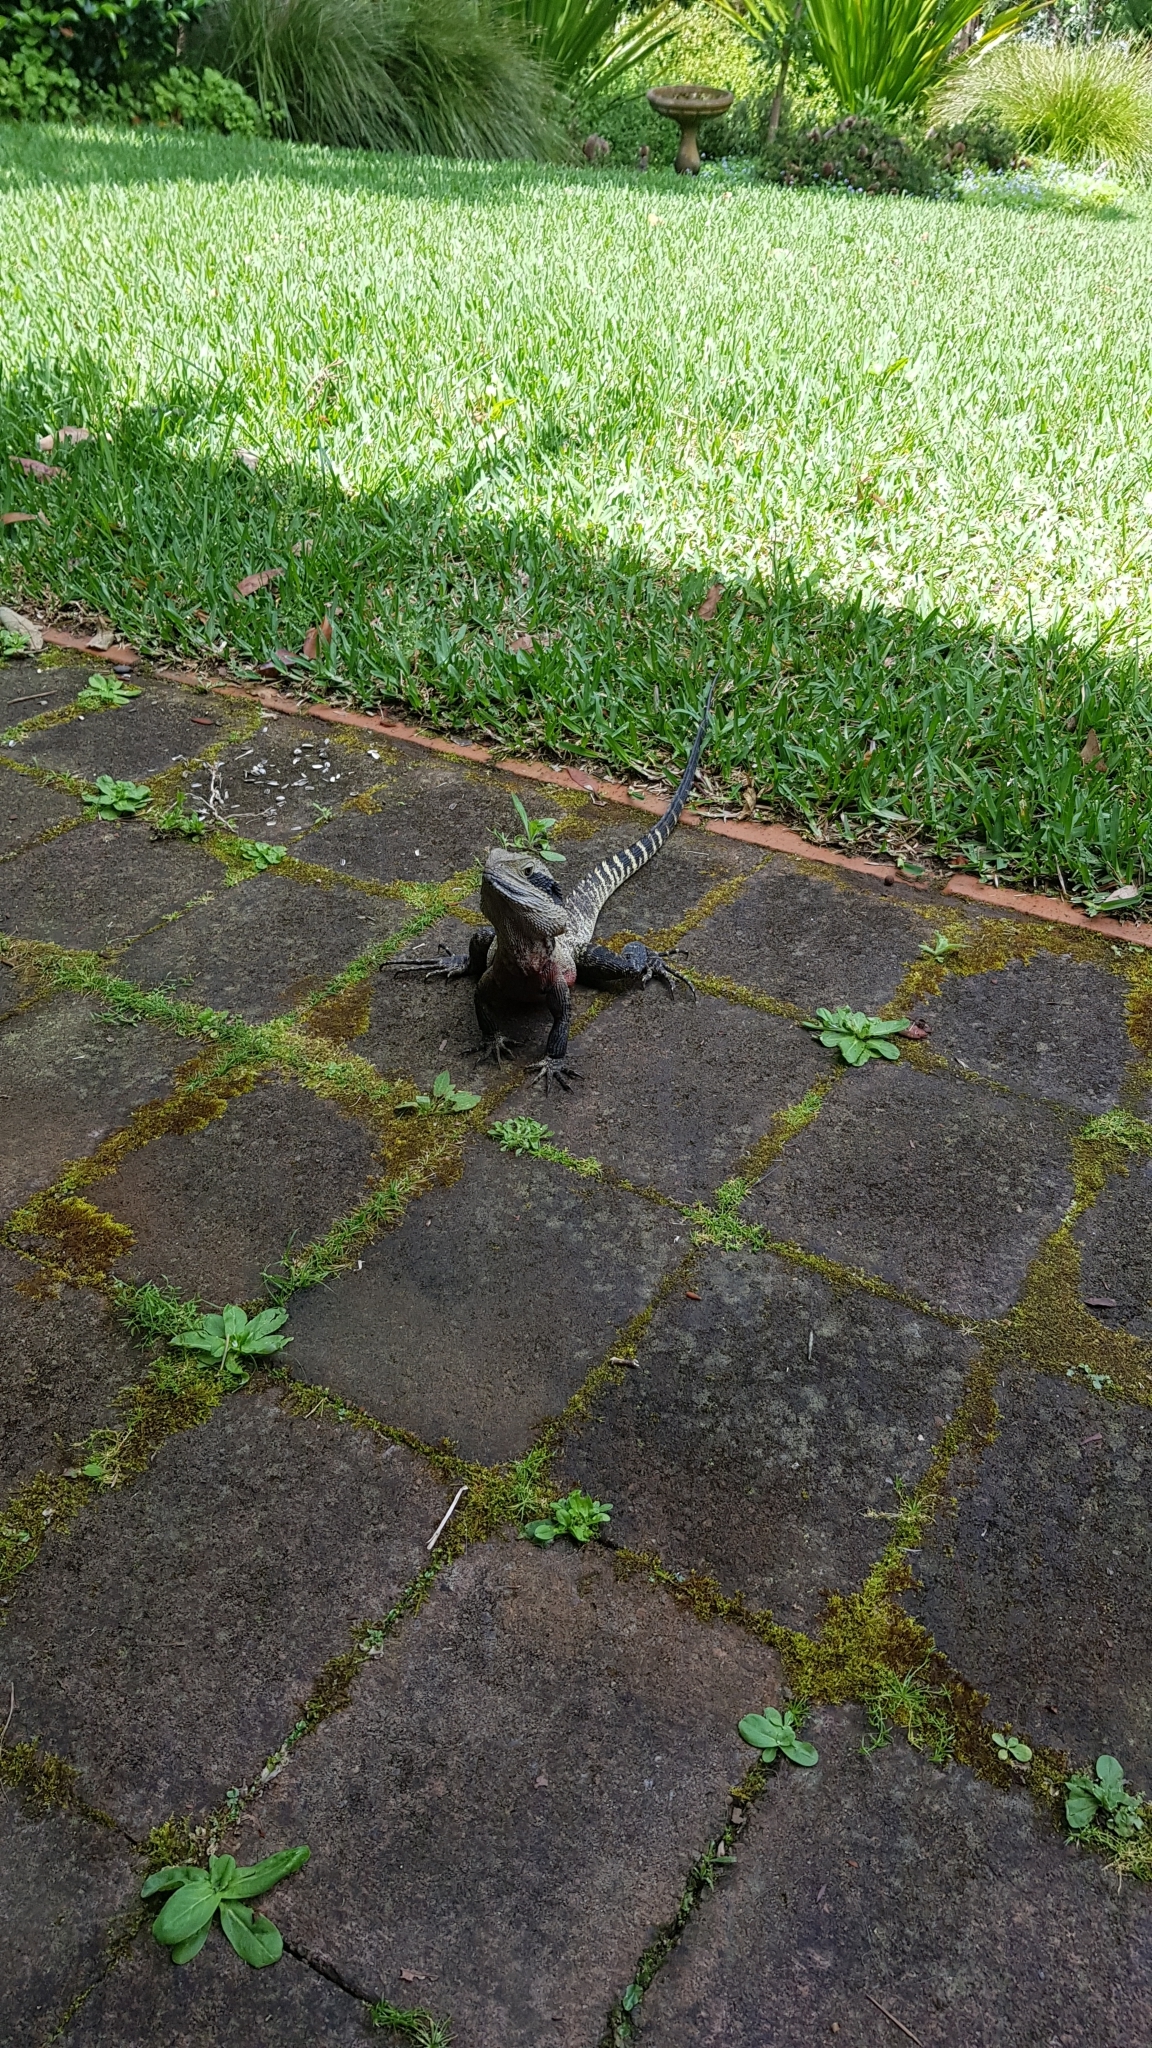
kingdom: Animalia
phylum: Chordata
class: Squamata
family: Agamidae
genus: Intellagama
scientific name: Intellagama lesueurii
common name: Eastern water dragon
